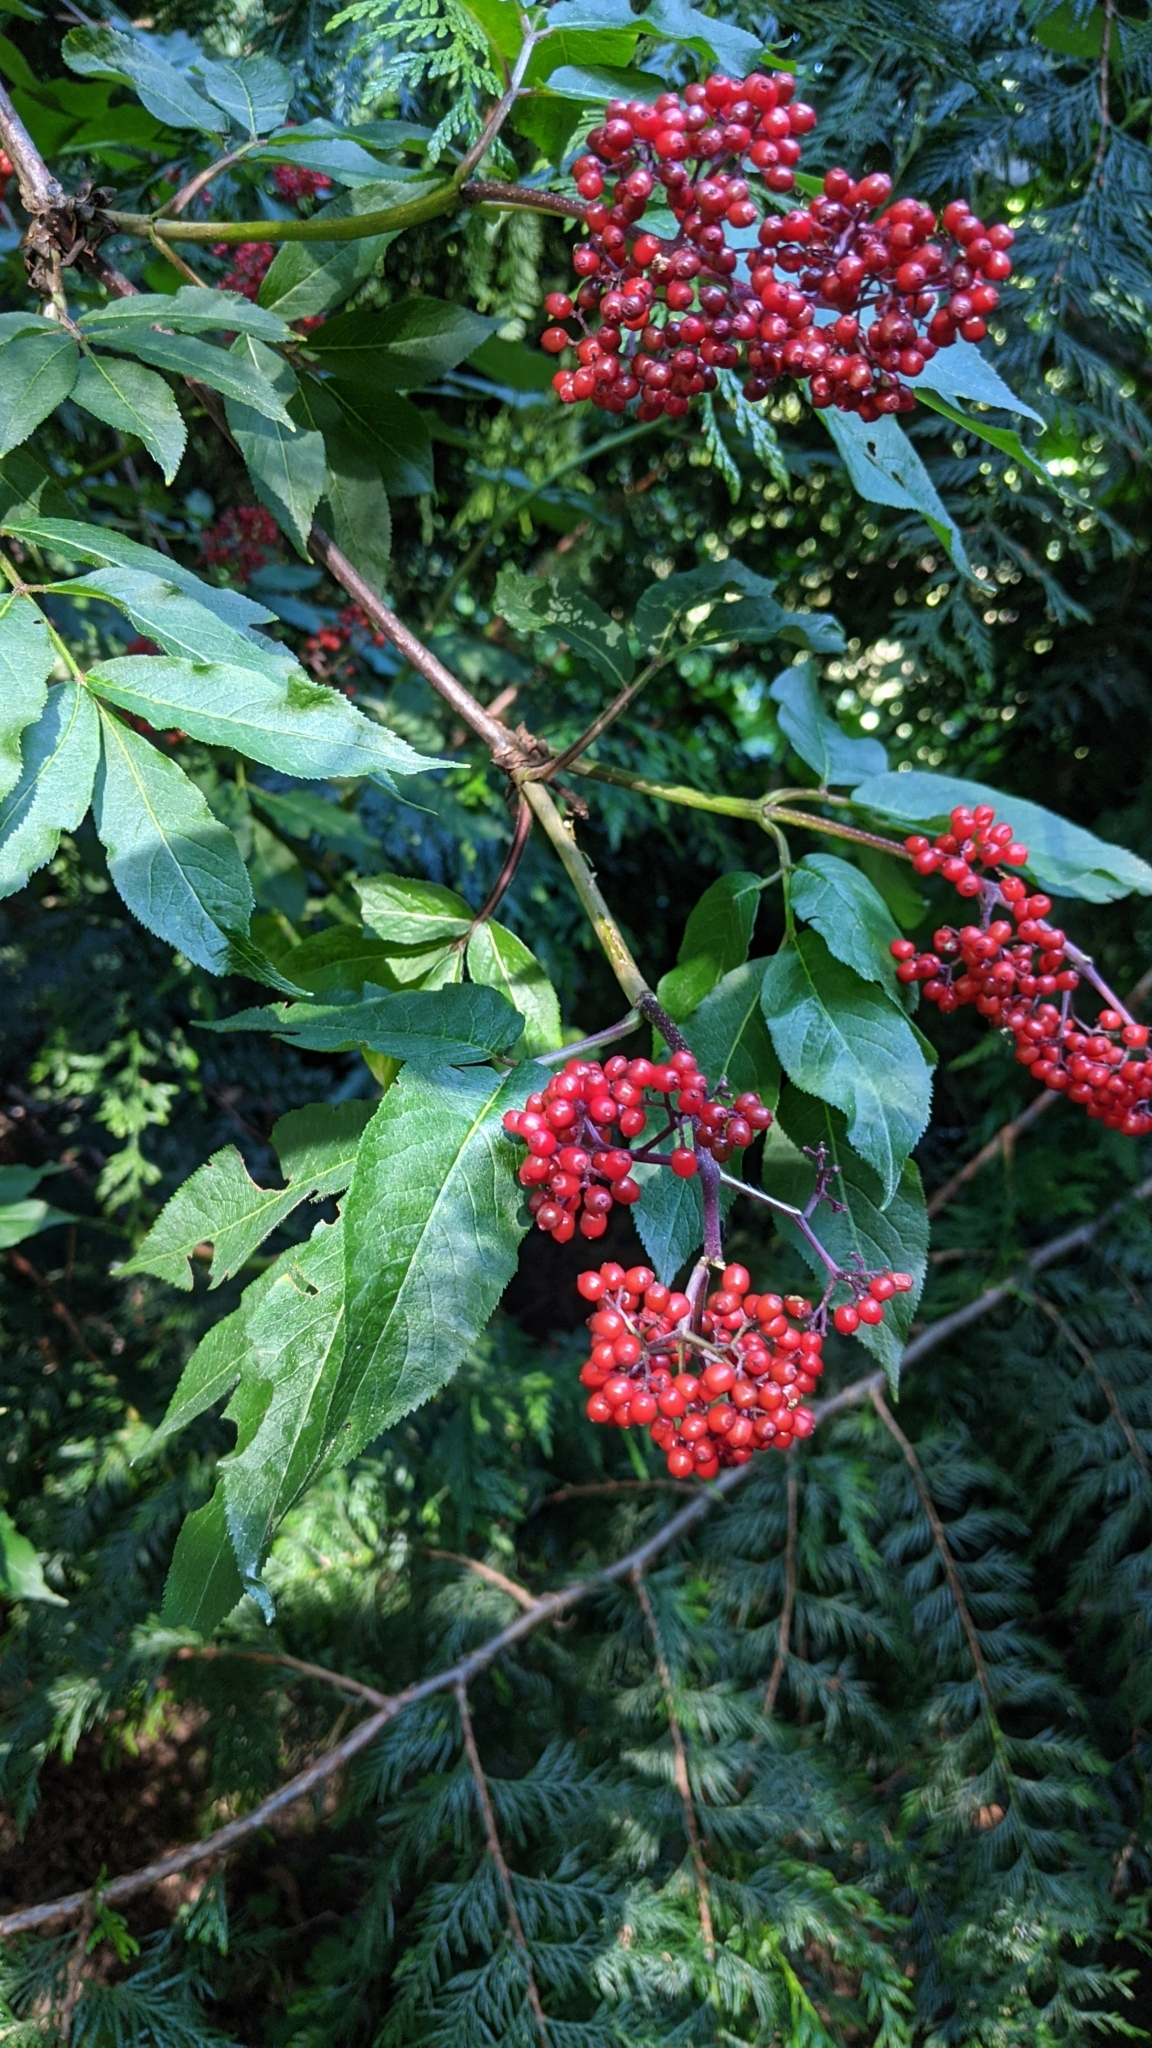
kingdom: Plantae
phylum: Tracheophyta
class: Magnoliopsida
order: Dipsacales
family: Viburnaceae
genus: Sambucus
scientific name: Sambucus racemosa
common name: Red-berried elder
